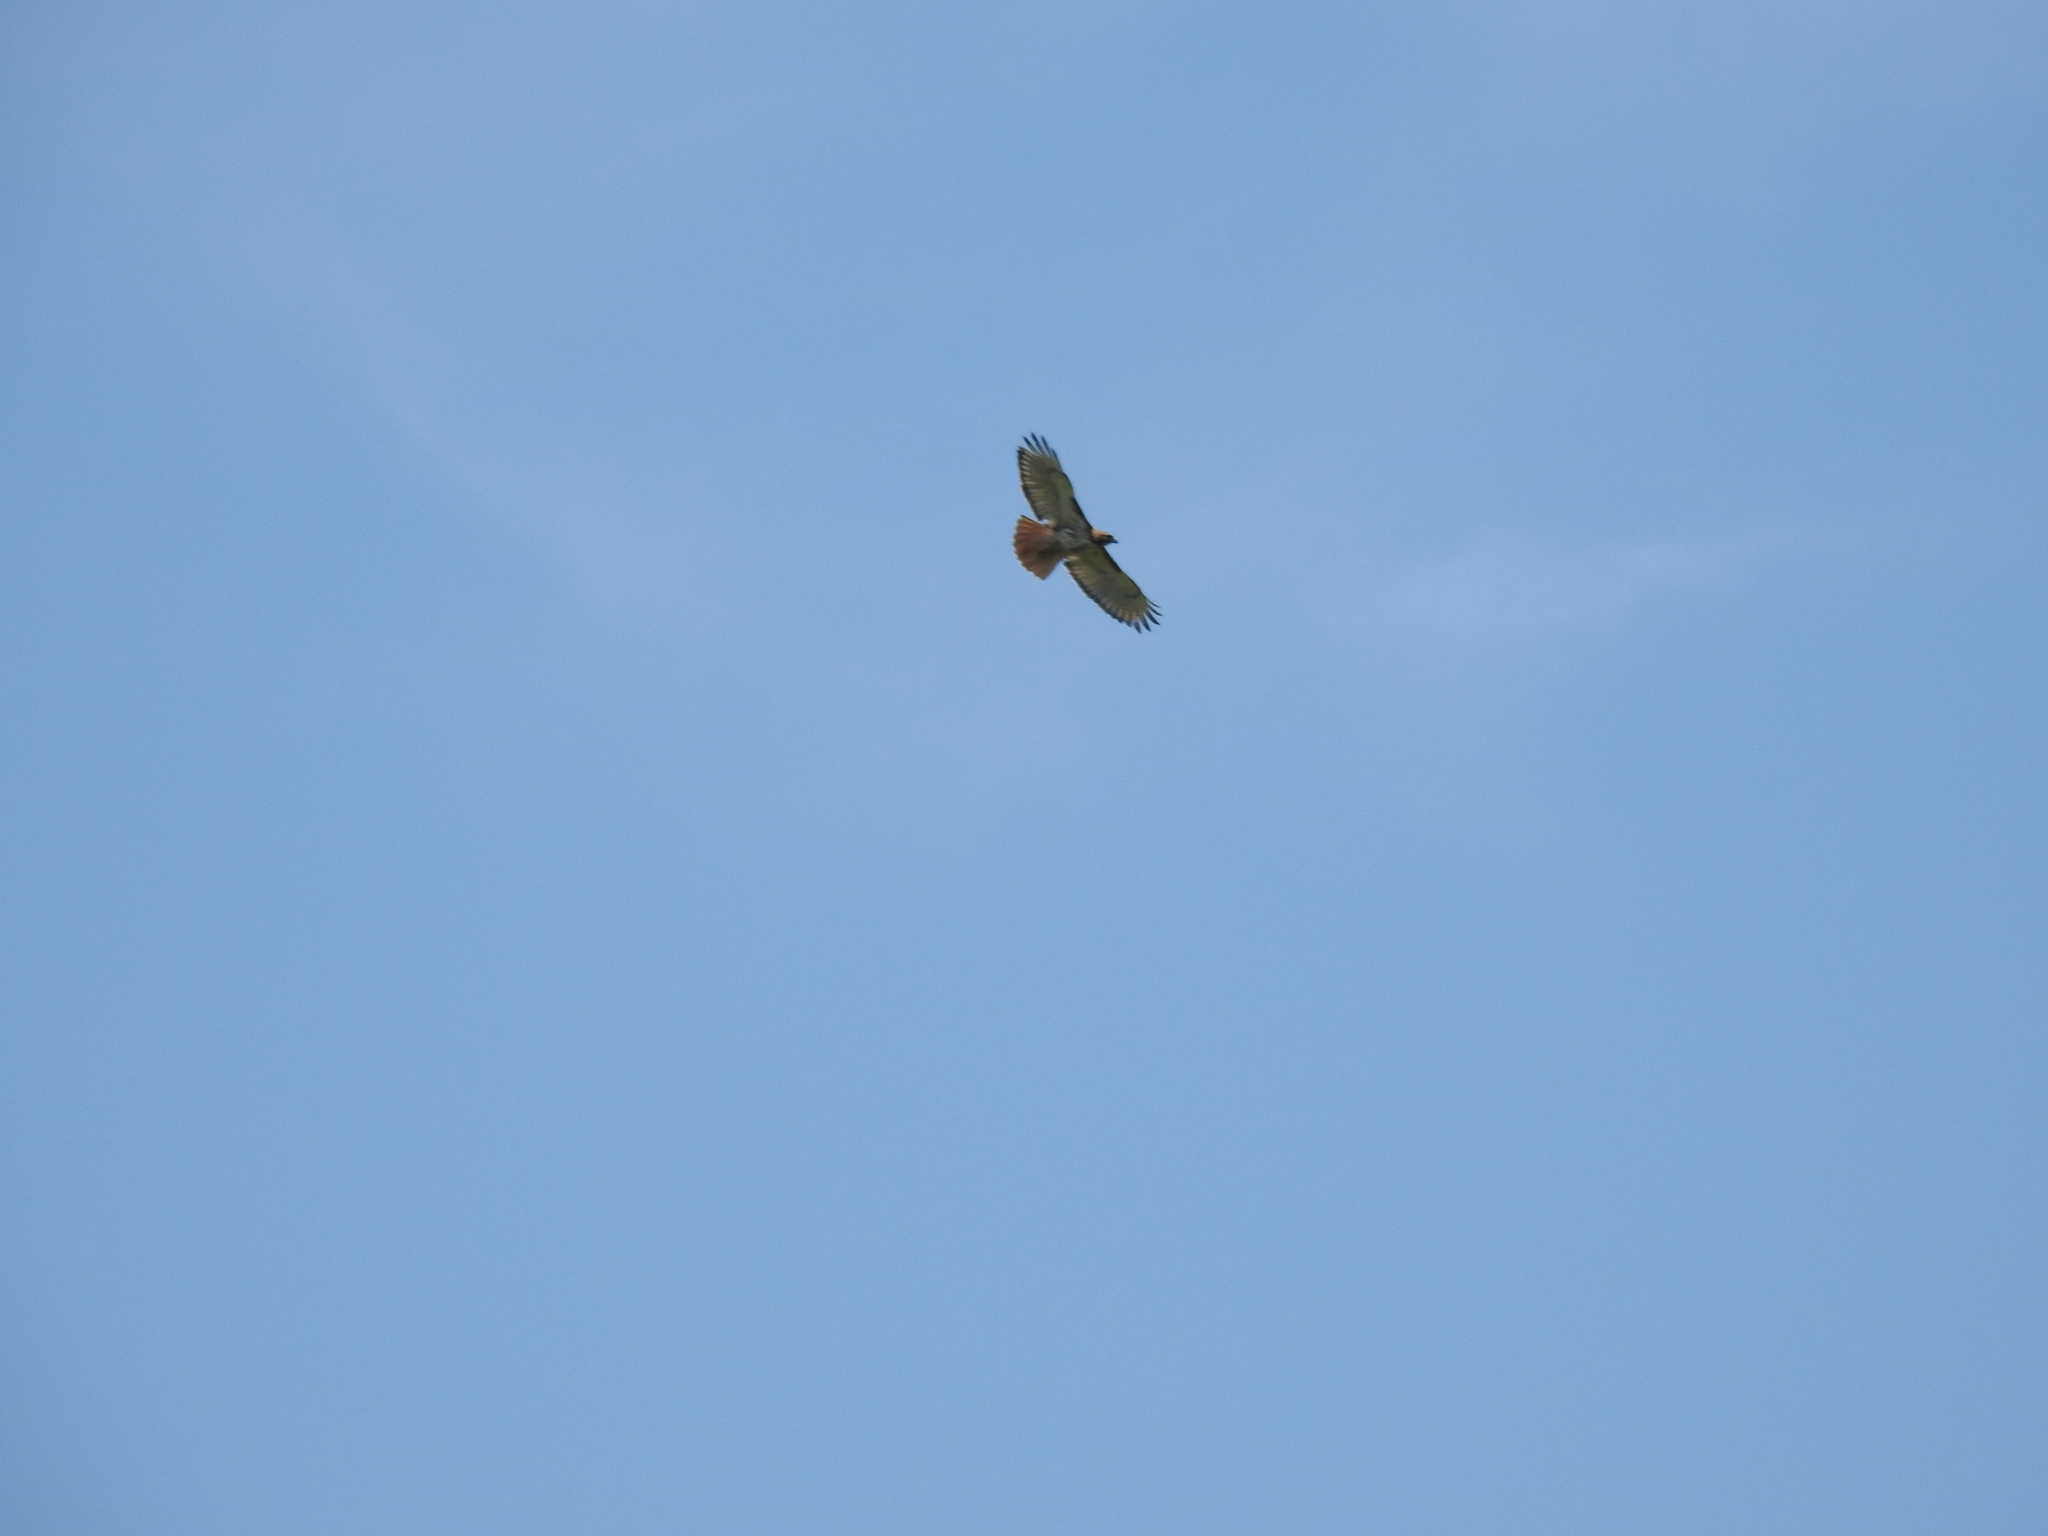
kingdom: Animalia
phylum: Chordata
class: Aves
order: Accipitriformes
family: Accipitridae
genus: Buteo
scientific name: Buteo jamaicensis
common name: Red-tailed hawk
